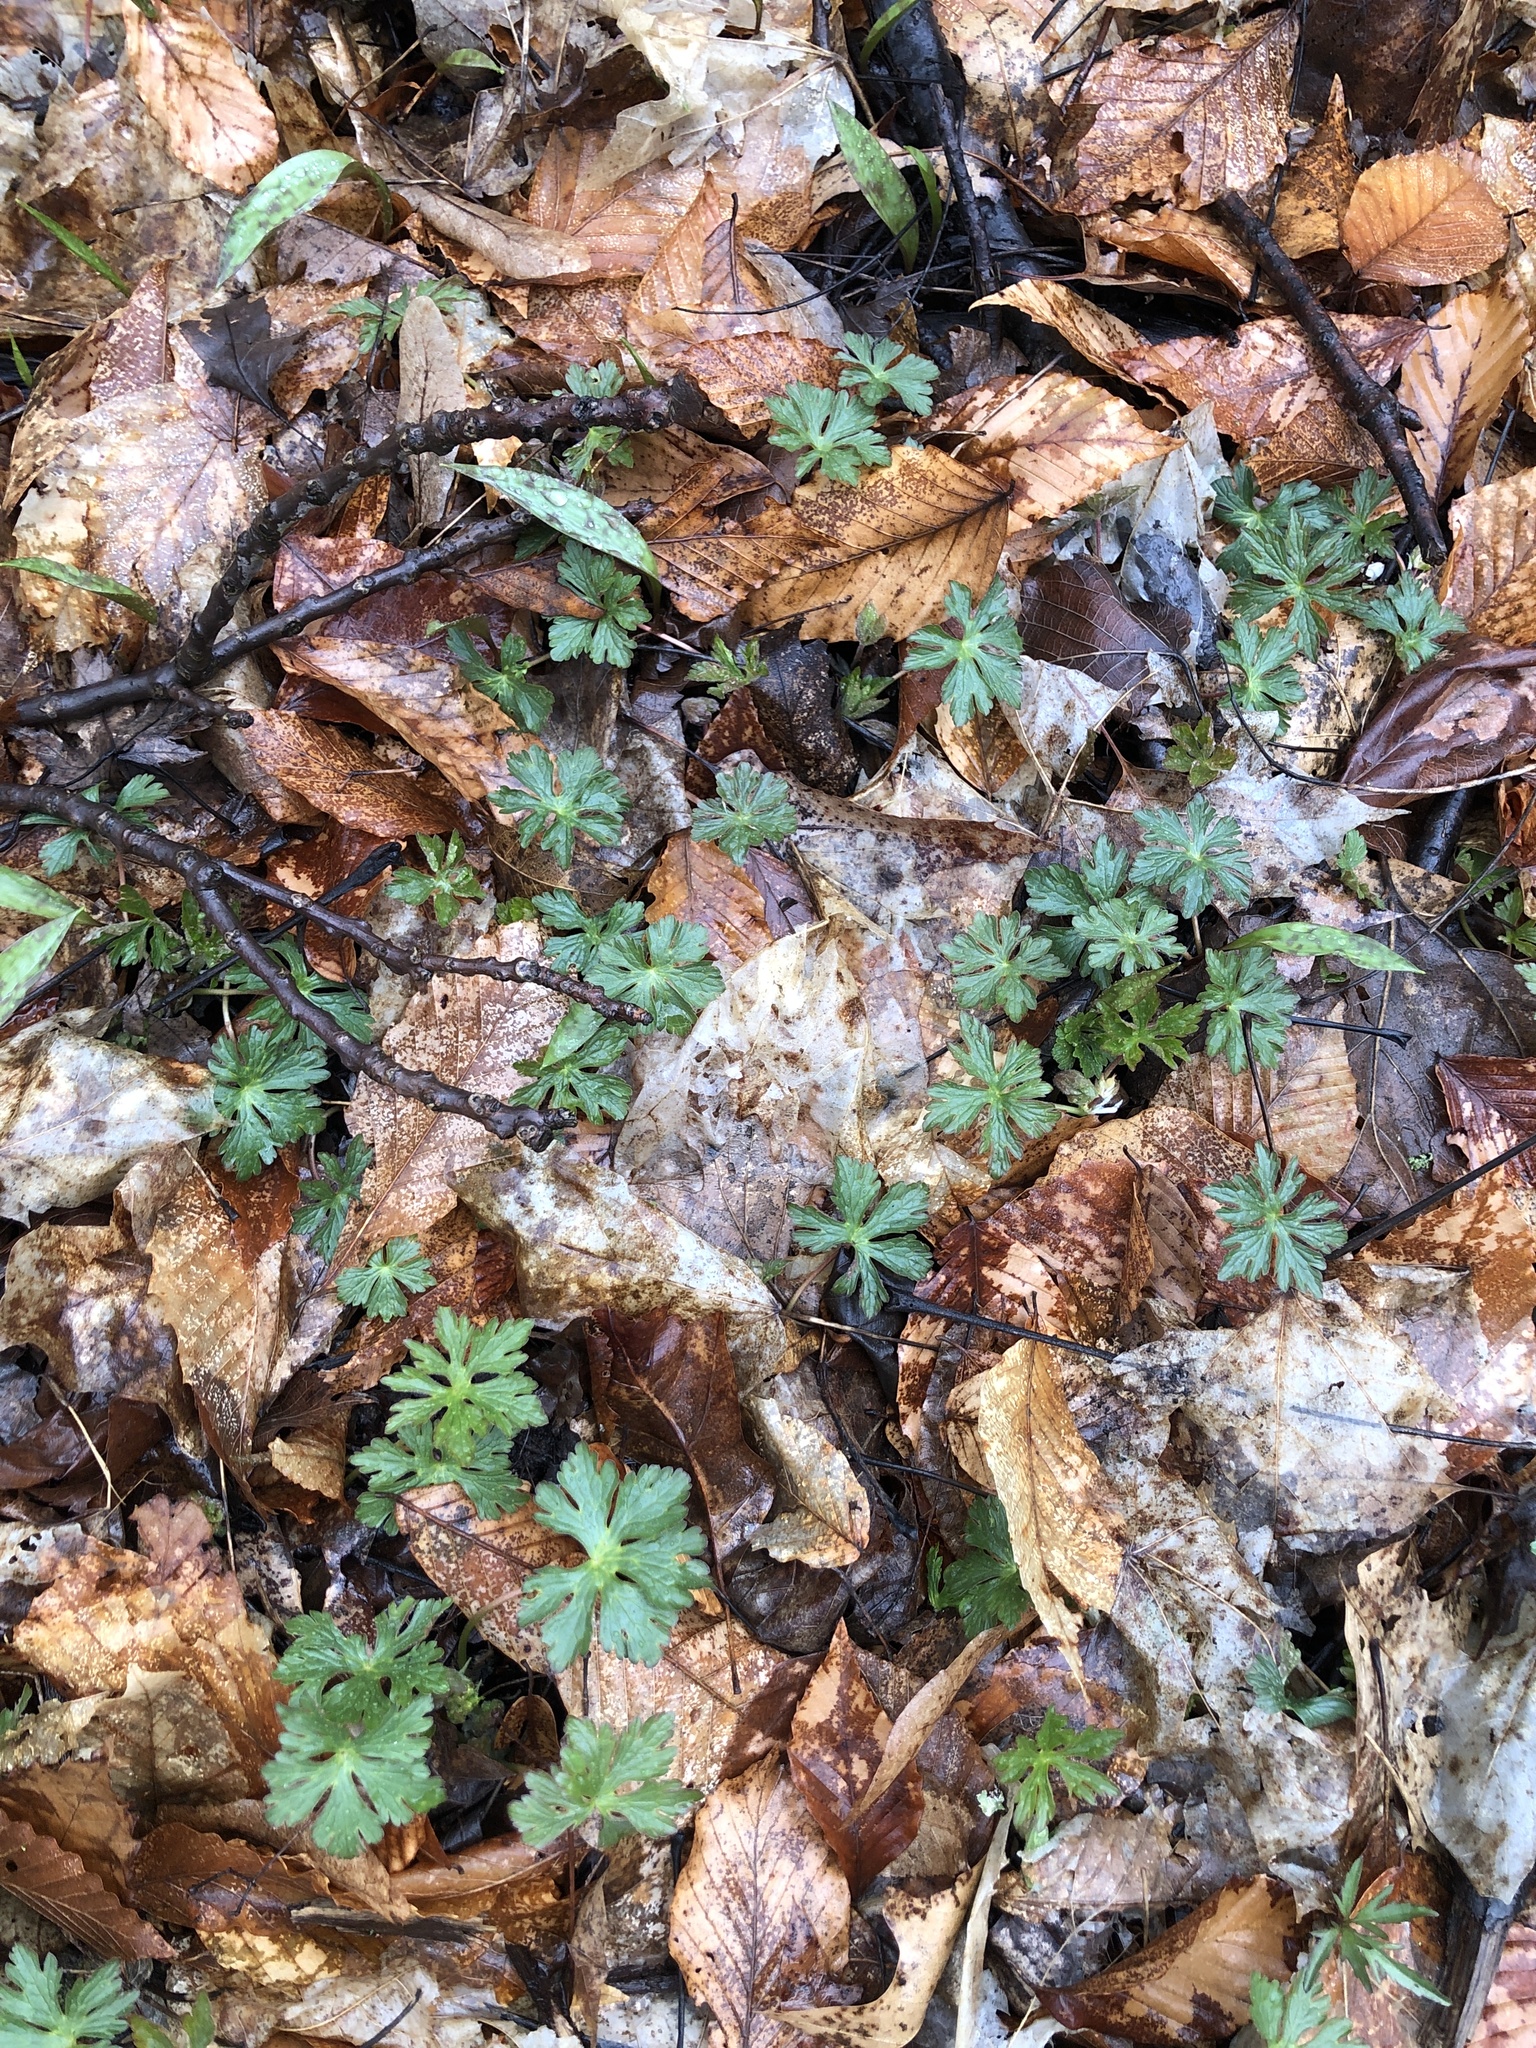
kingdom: Plantae
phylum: Tracheophyta
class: Magnoliopsida
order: Geraniales
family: Geraniaceae
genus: Geranium
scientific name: Geranium maculatum
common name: Spotted geranium
